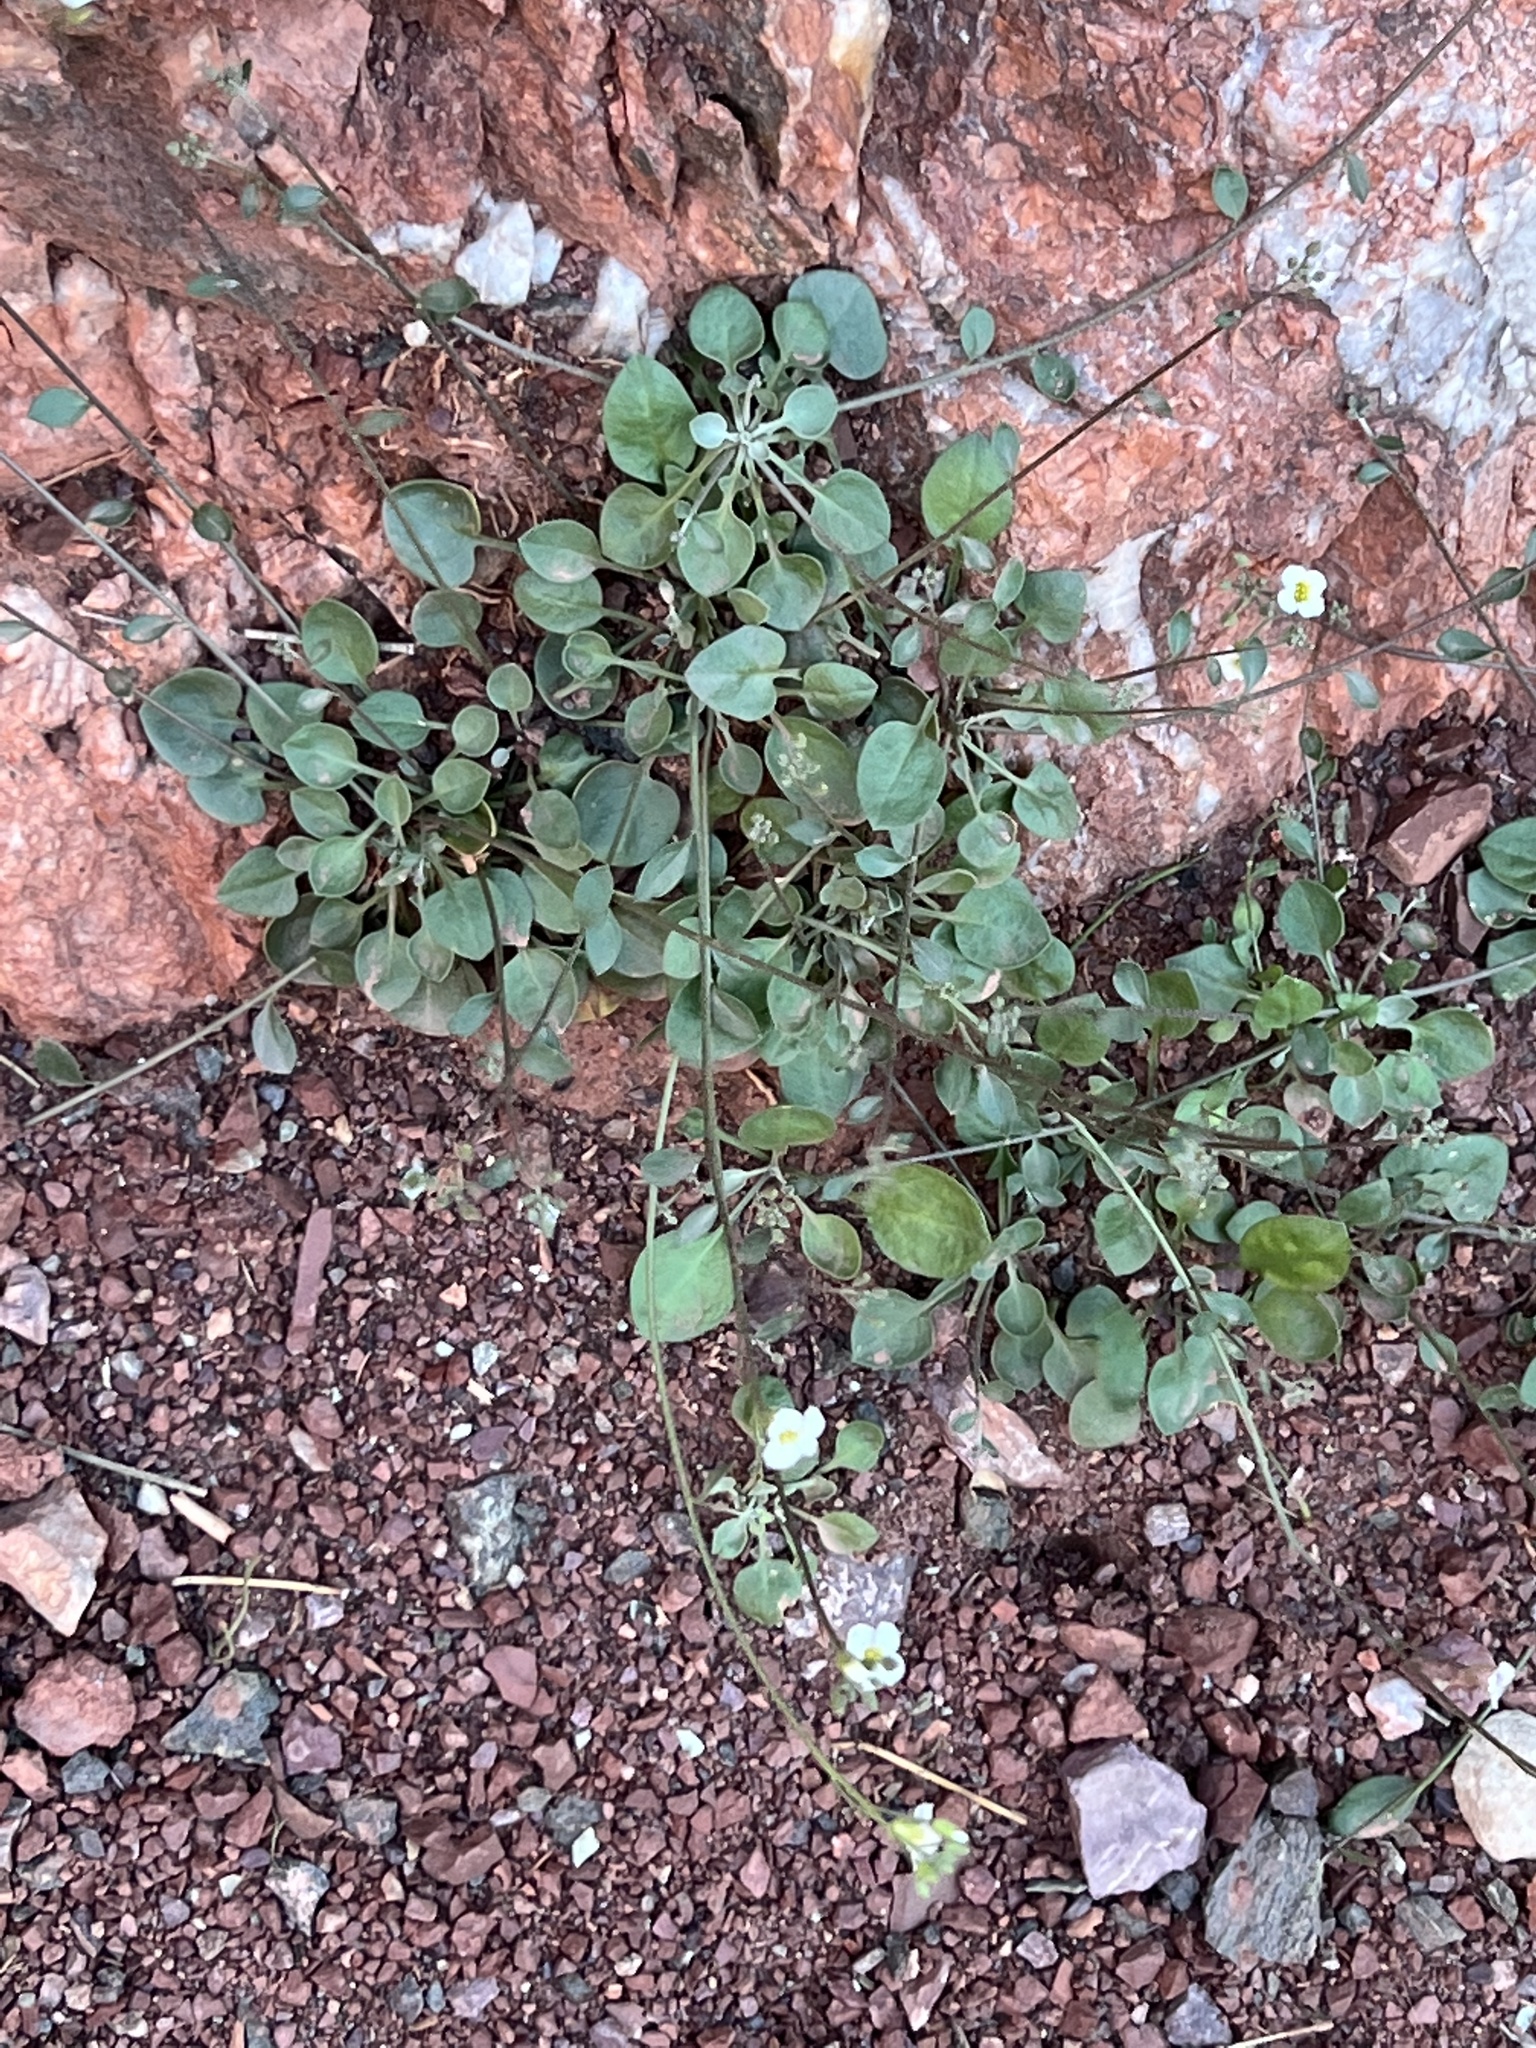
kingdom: Plantae
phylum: Tracheophyta
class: Magnoliopsida
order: Brassicales
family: Brassicaceae
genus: Physaria
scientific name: Physaria purpurea
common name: Rose bladderpod
